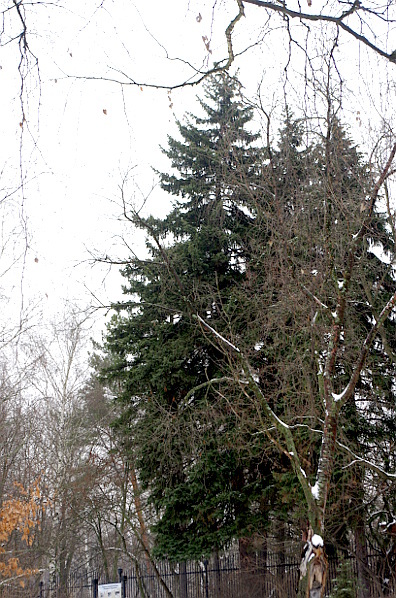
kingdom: Plantae
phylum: Tracheophyta
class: Pinopsida
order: Pinales
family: Pinaceae
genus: Picea
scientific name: Picea abies
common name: Norway spruce
